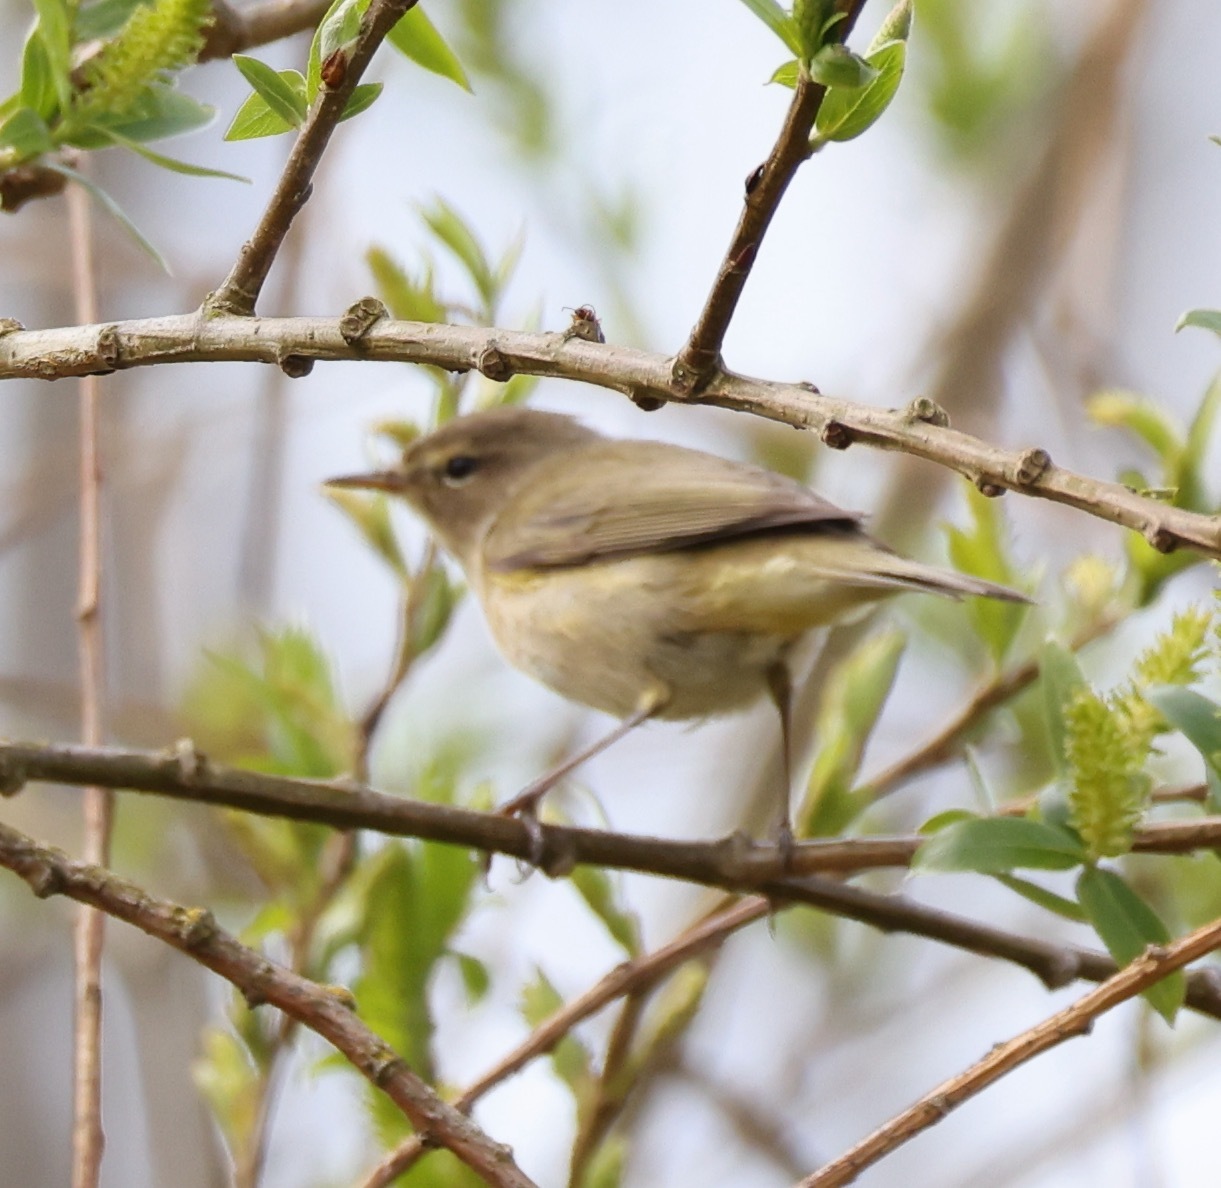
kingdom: Animalia
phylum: Chordata
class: Aves
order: Passeriformes
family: Phylloscopidae
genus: Phylloscopus
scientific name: Phylloscopus collybita
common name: Common chiffchaff
